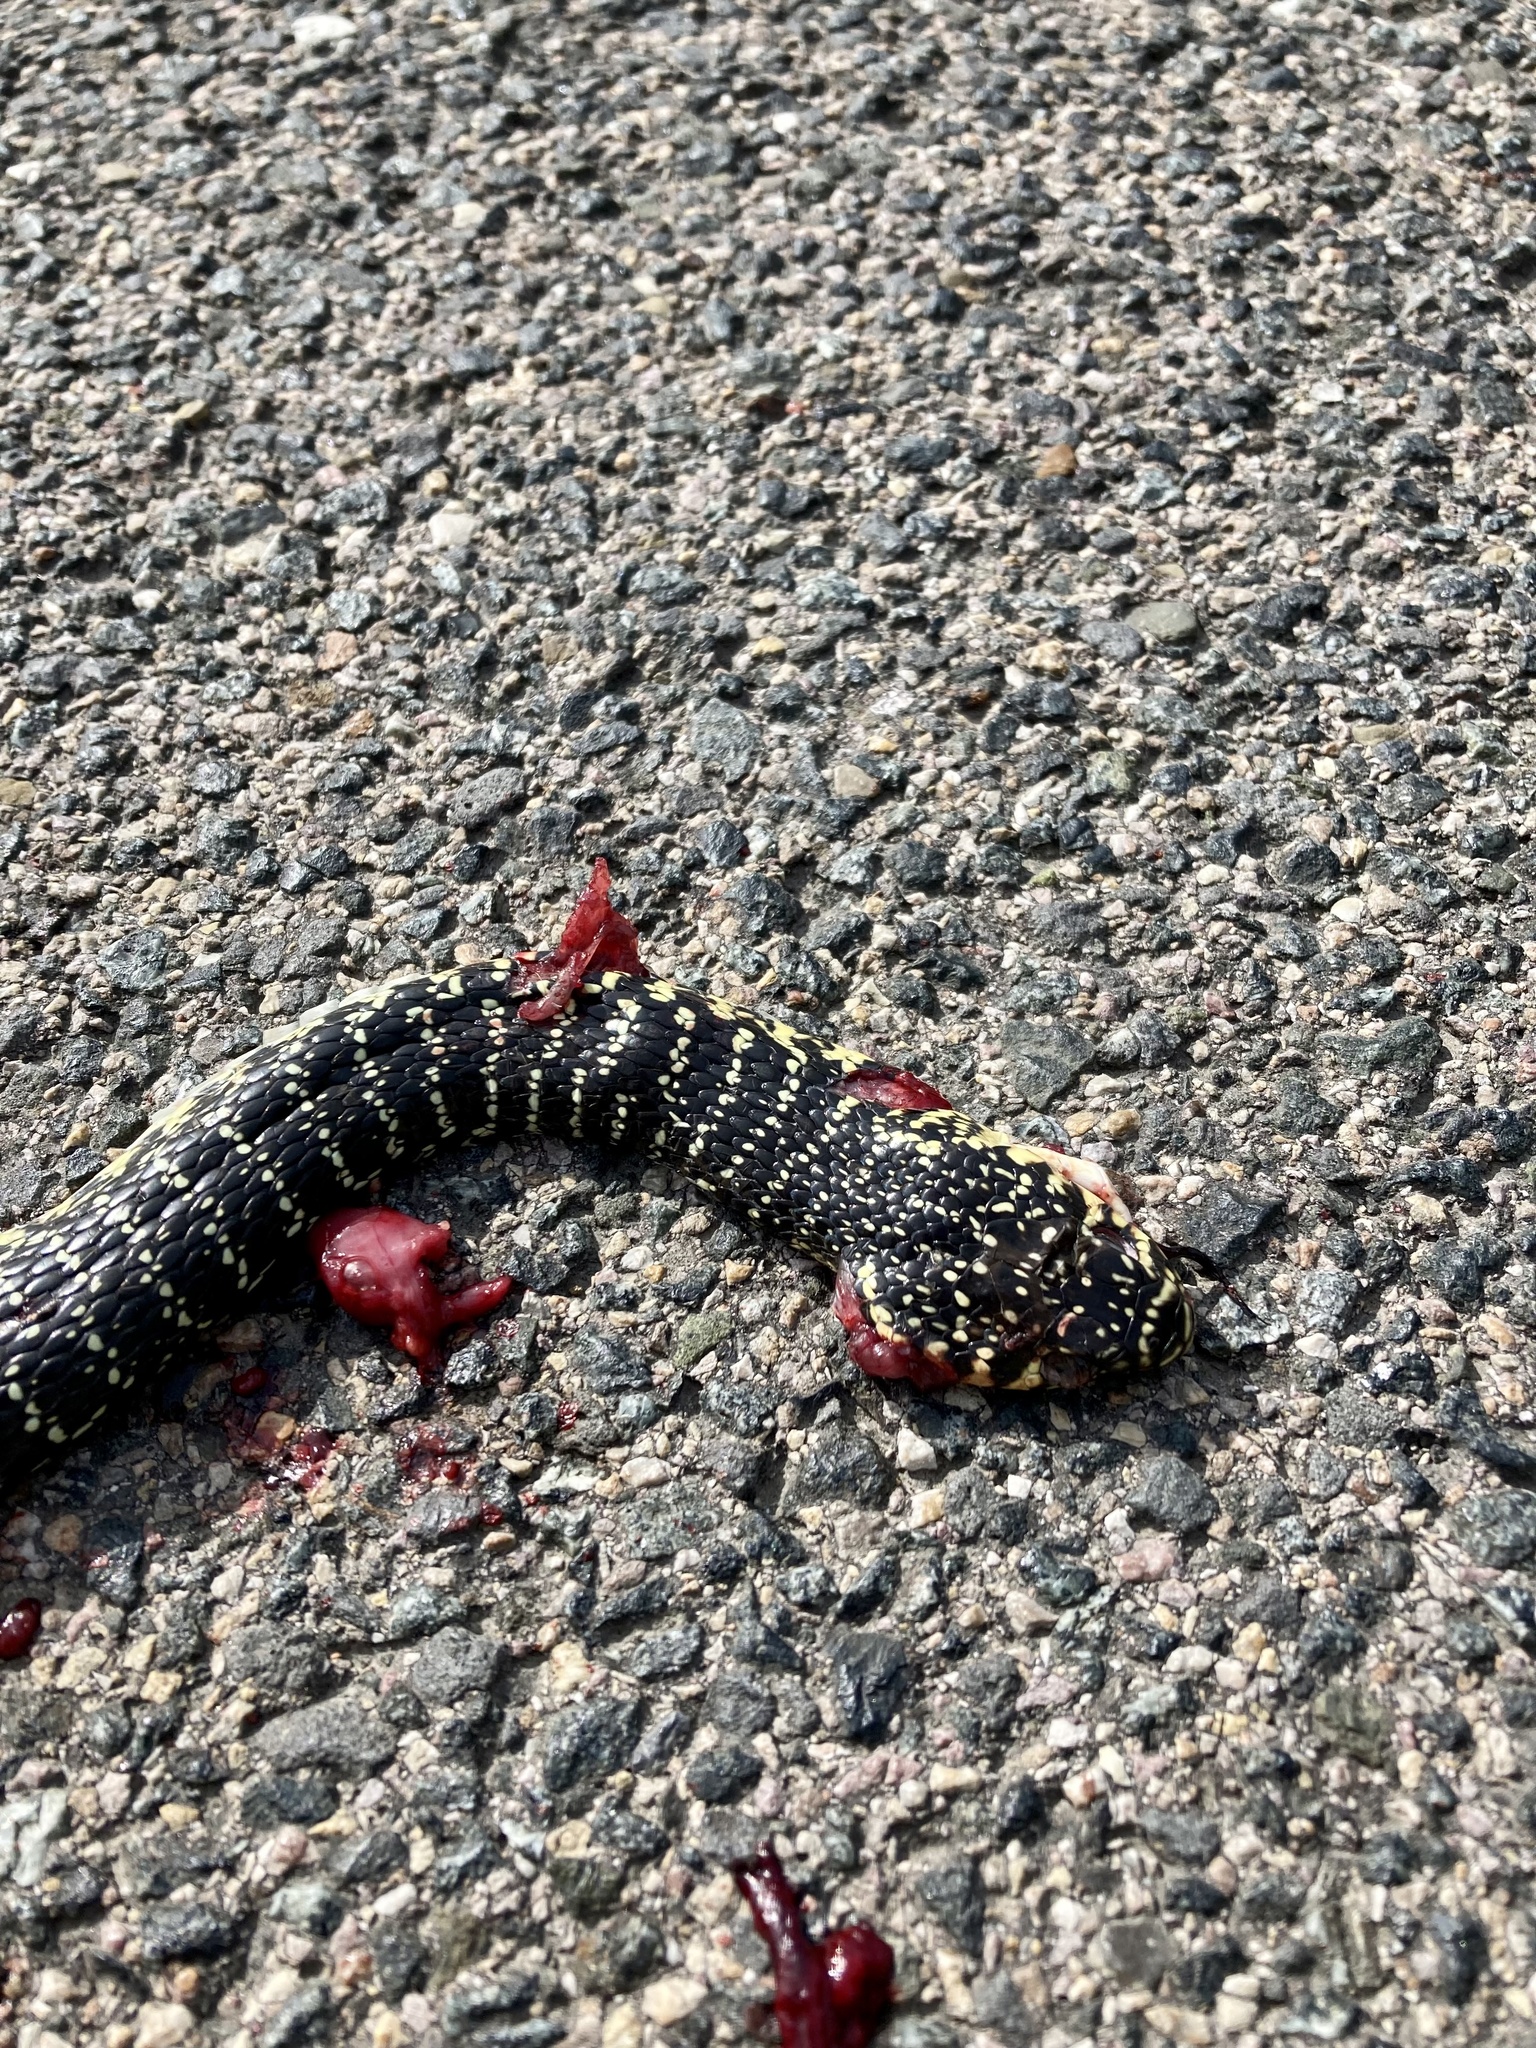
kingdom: Animalia
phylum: Chordata
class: Squamata
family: Colubridae
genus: Hierophis
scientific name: Hierophis viridiflavus
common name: Green whip snake
